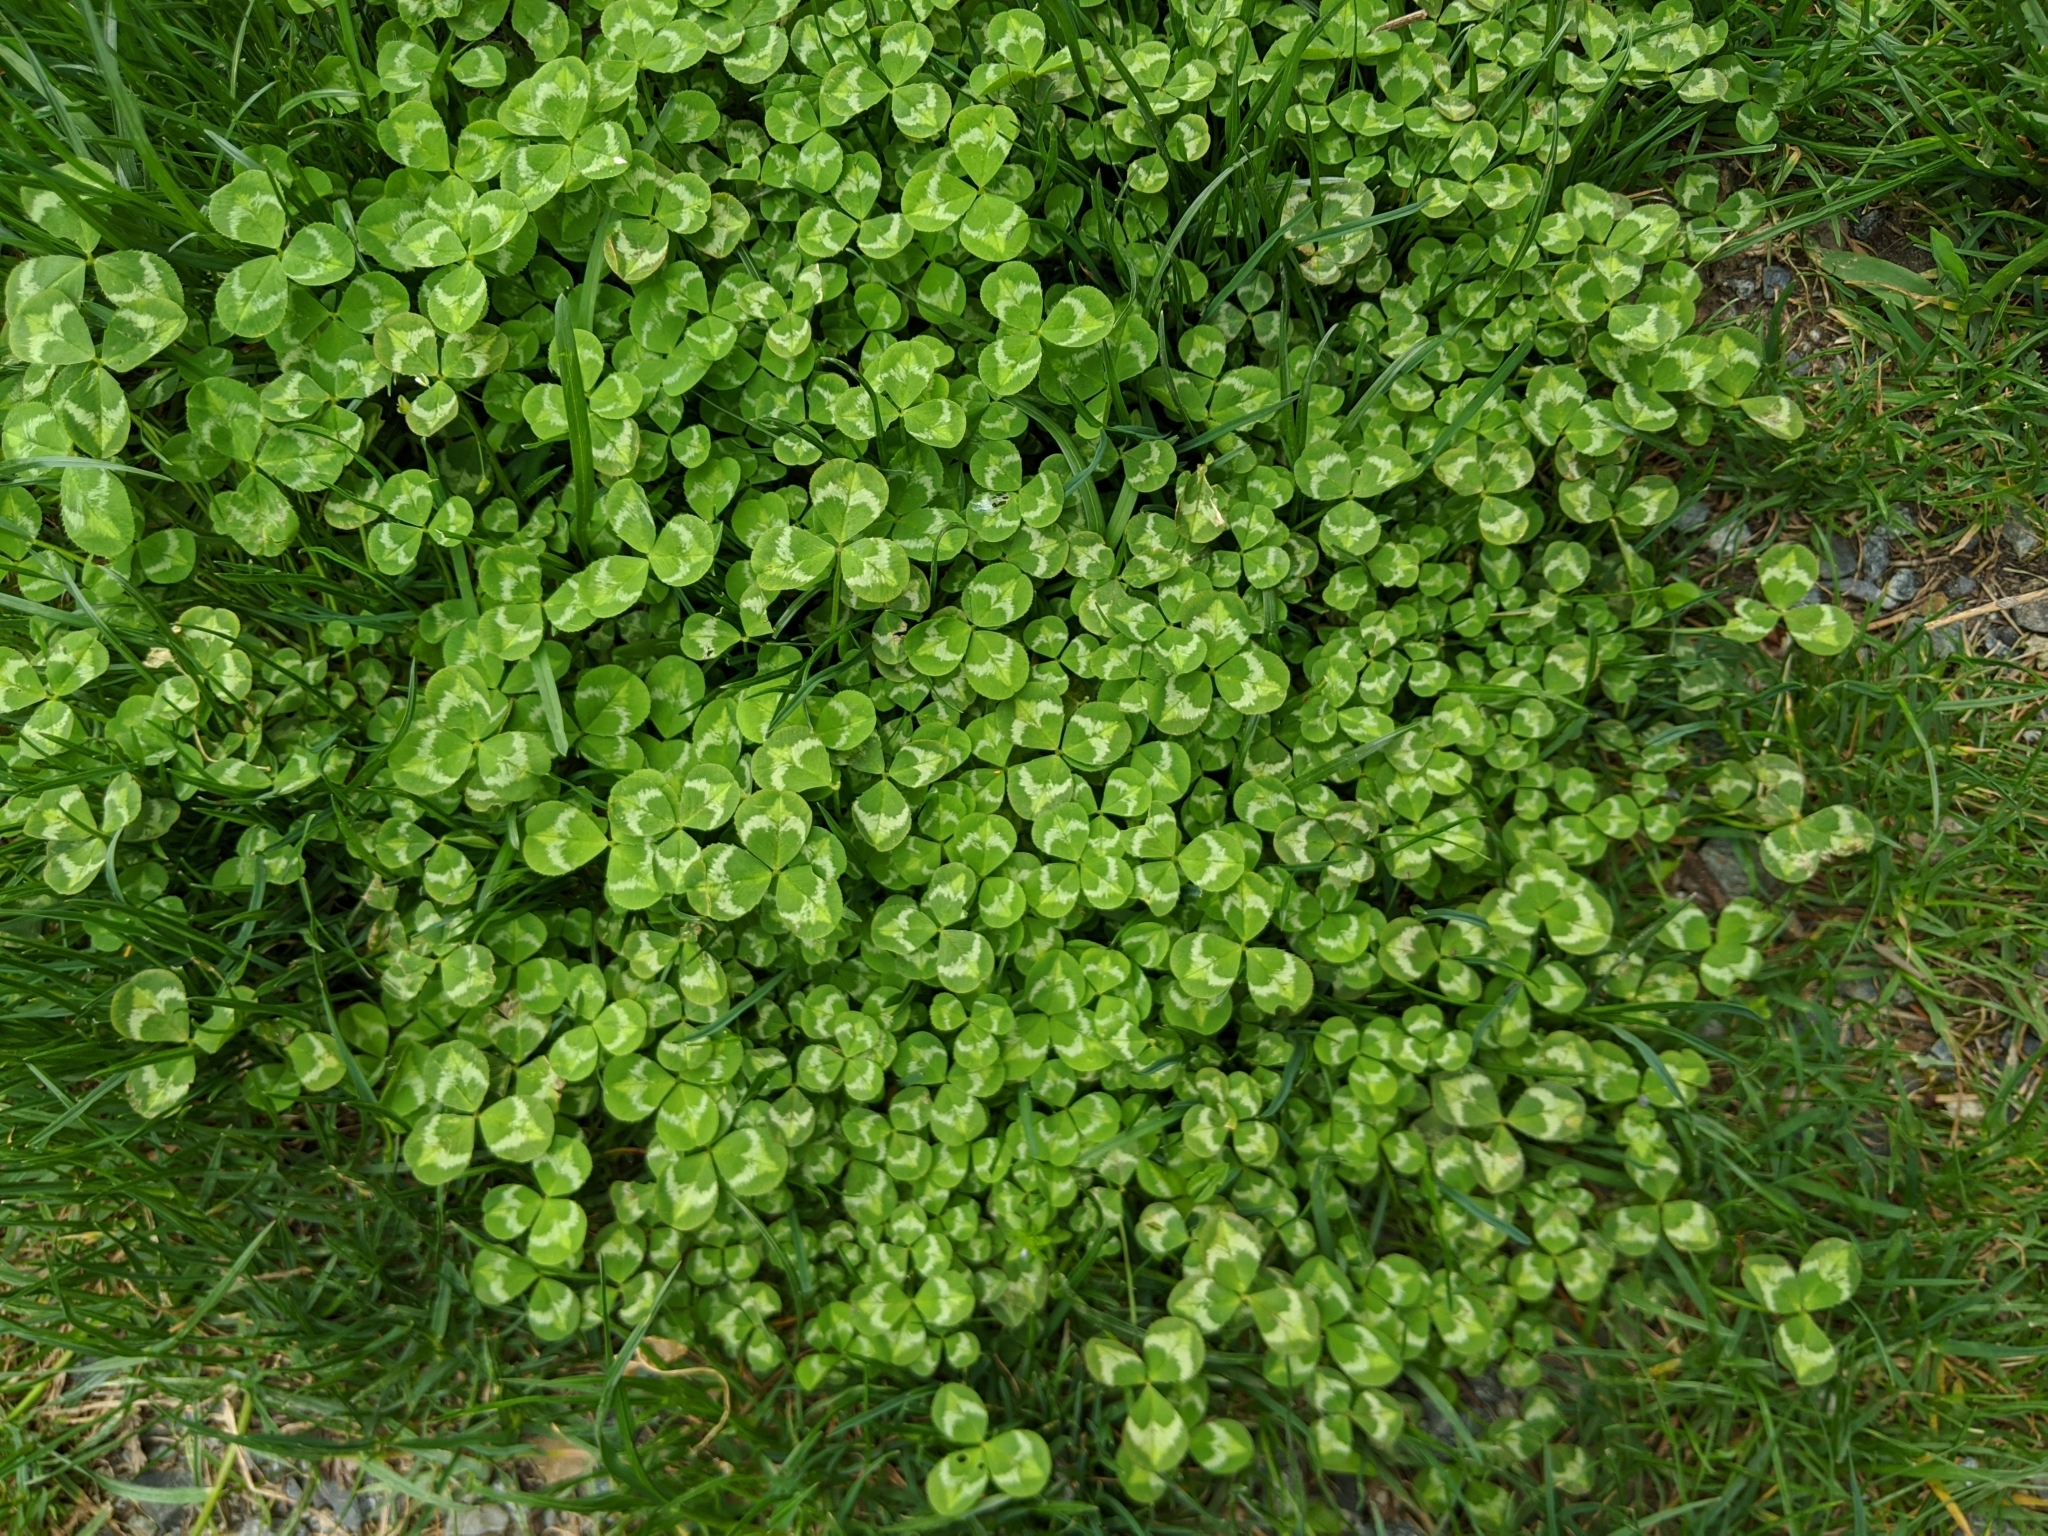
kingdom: Plantae
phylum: Tracheophyta
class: Magnoliopsida
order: Fabales
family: Fabaceae
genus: Trifolium
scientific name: Trifolium repens
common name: White clover
